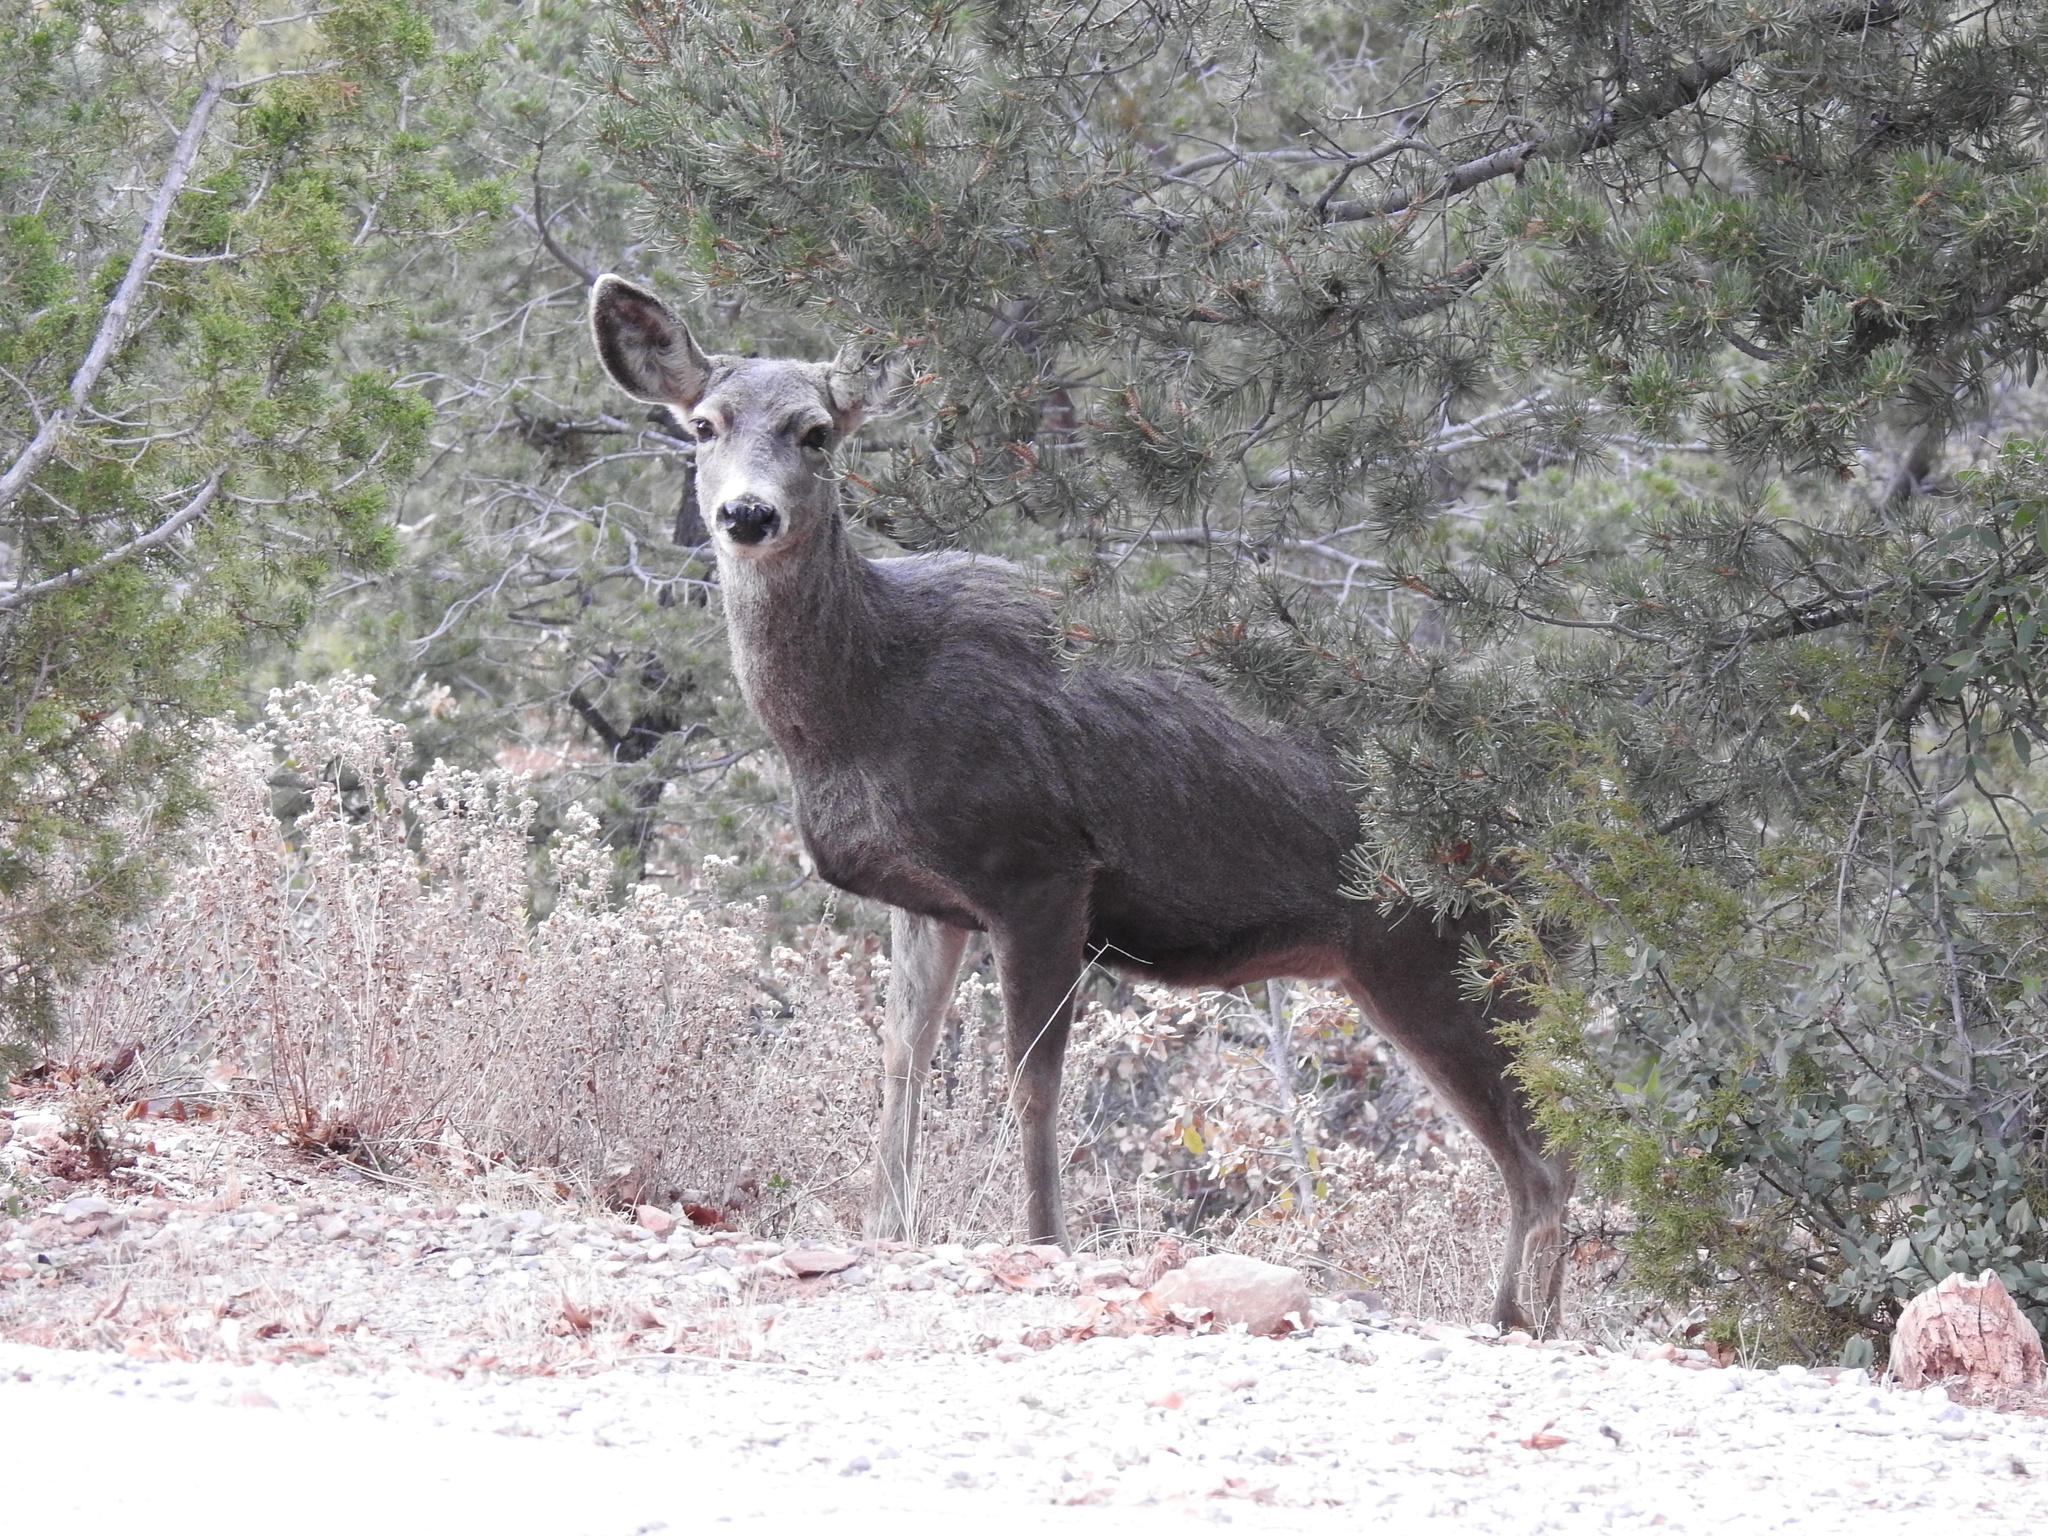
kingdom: Animalia
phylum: Chordata
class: Mammalia
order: Artiodactyla
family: Cervidae
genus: Odocoileus
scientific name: Odocoileus hemionus
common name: Mule deer
